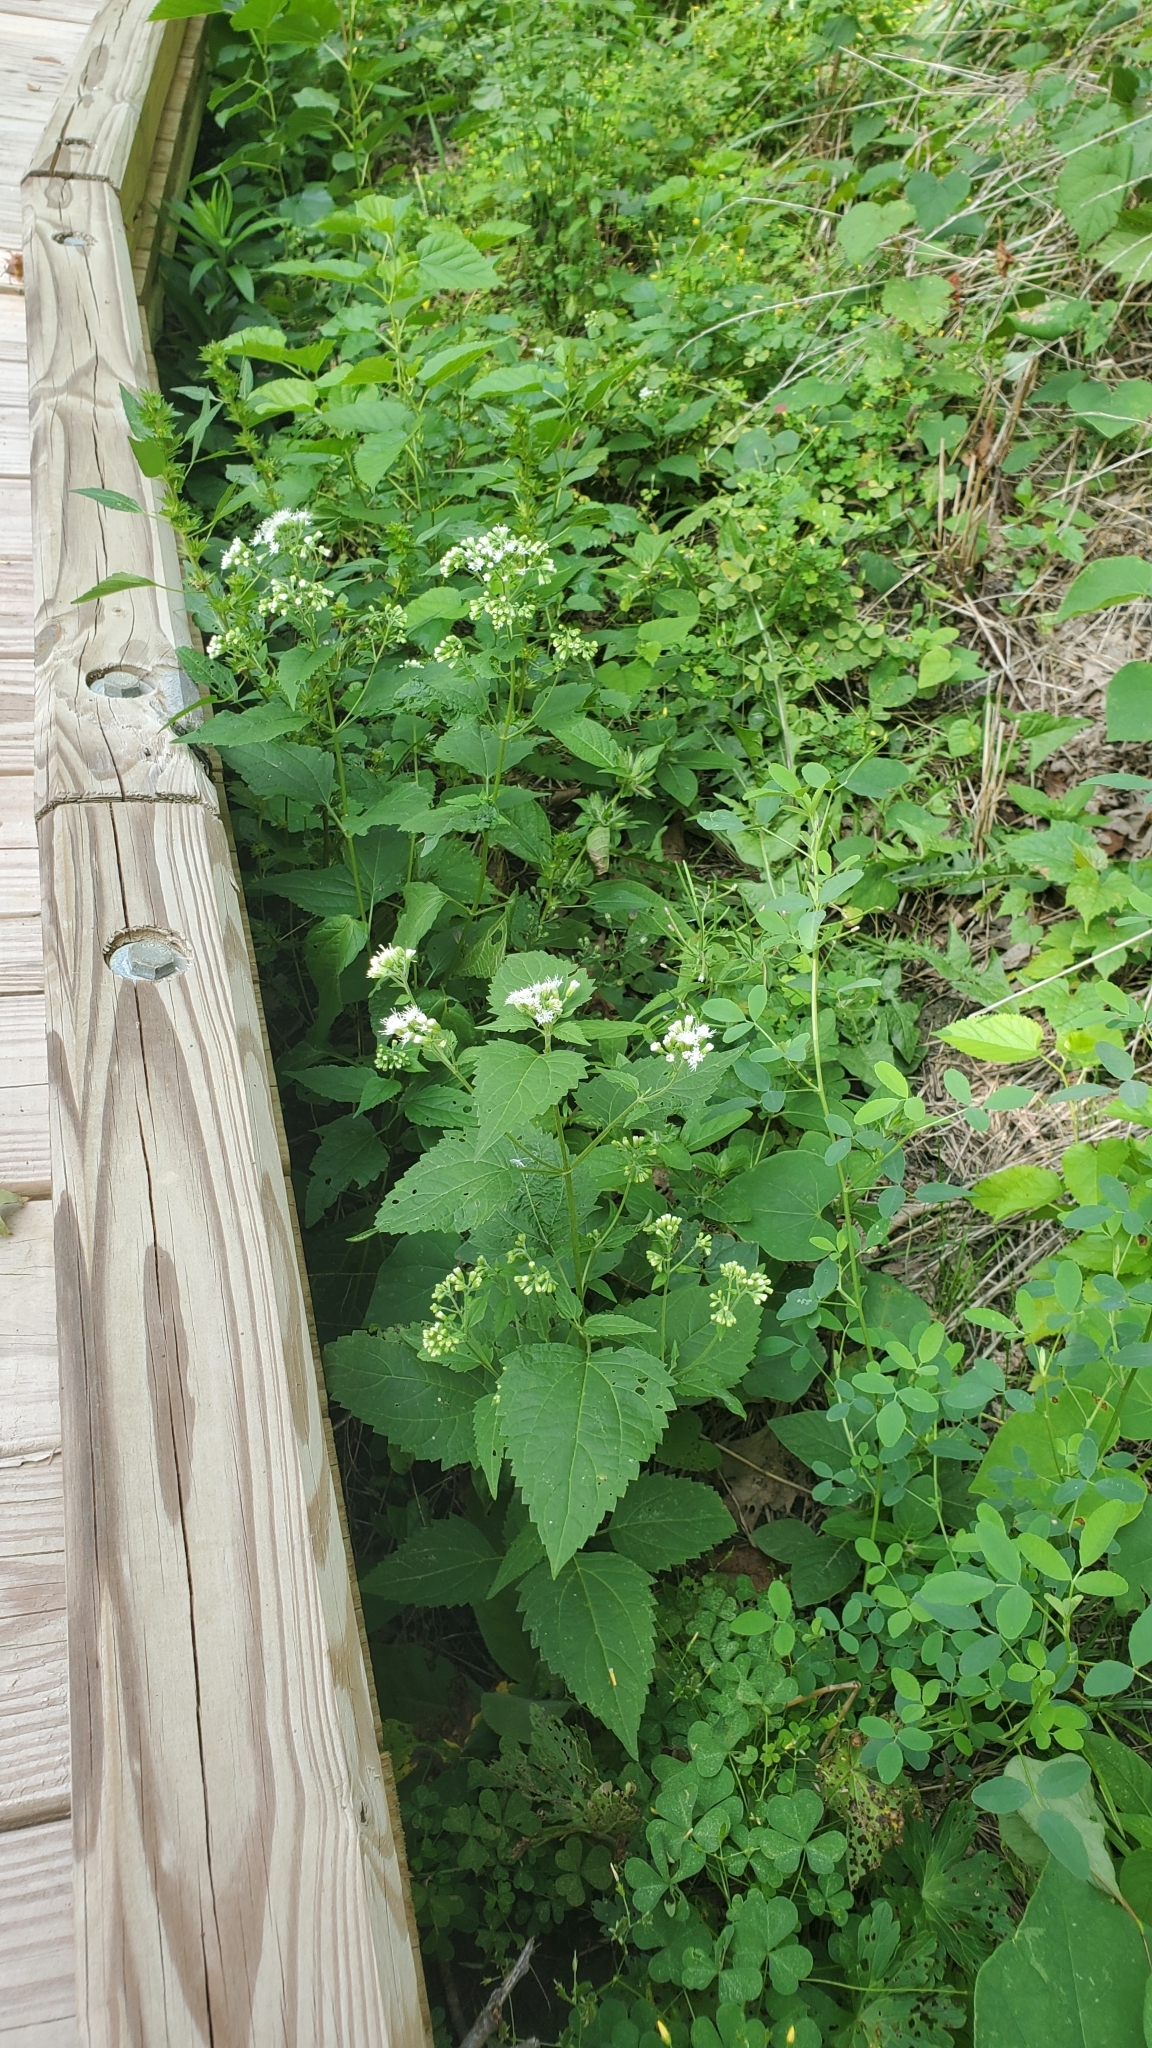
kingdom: Plantae
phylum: Tracheophyta
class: Magnoliopsida
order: Asterales
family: Asteraceae
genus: Ageratina
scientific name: Ageratina altissima
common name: White snakeroot
